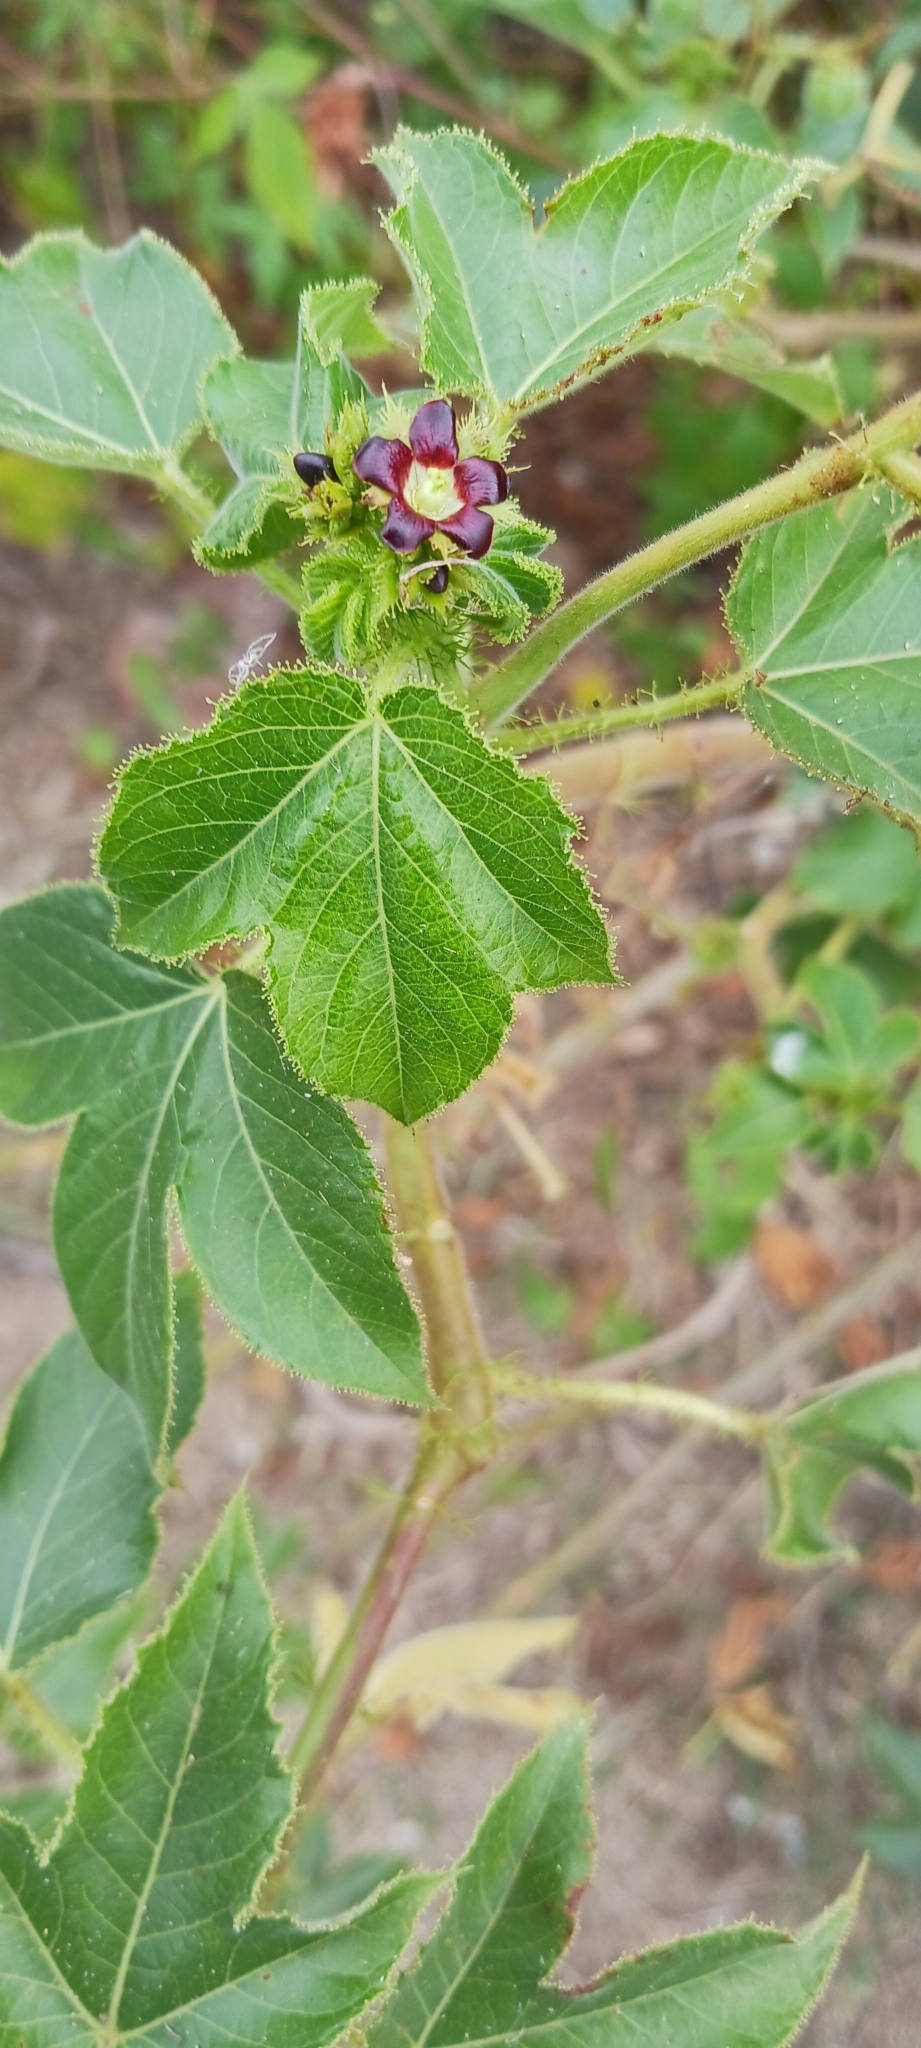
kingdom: Plantae
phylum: Tracheophyta
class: Magnoliopsida
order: Malpighiales
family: Euphorbiaceae
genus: Jatropha
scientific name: Jatropha gossypiifolia
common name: Bellyache bush
